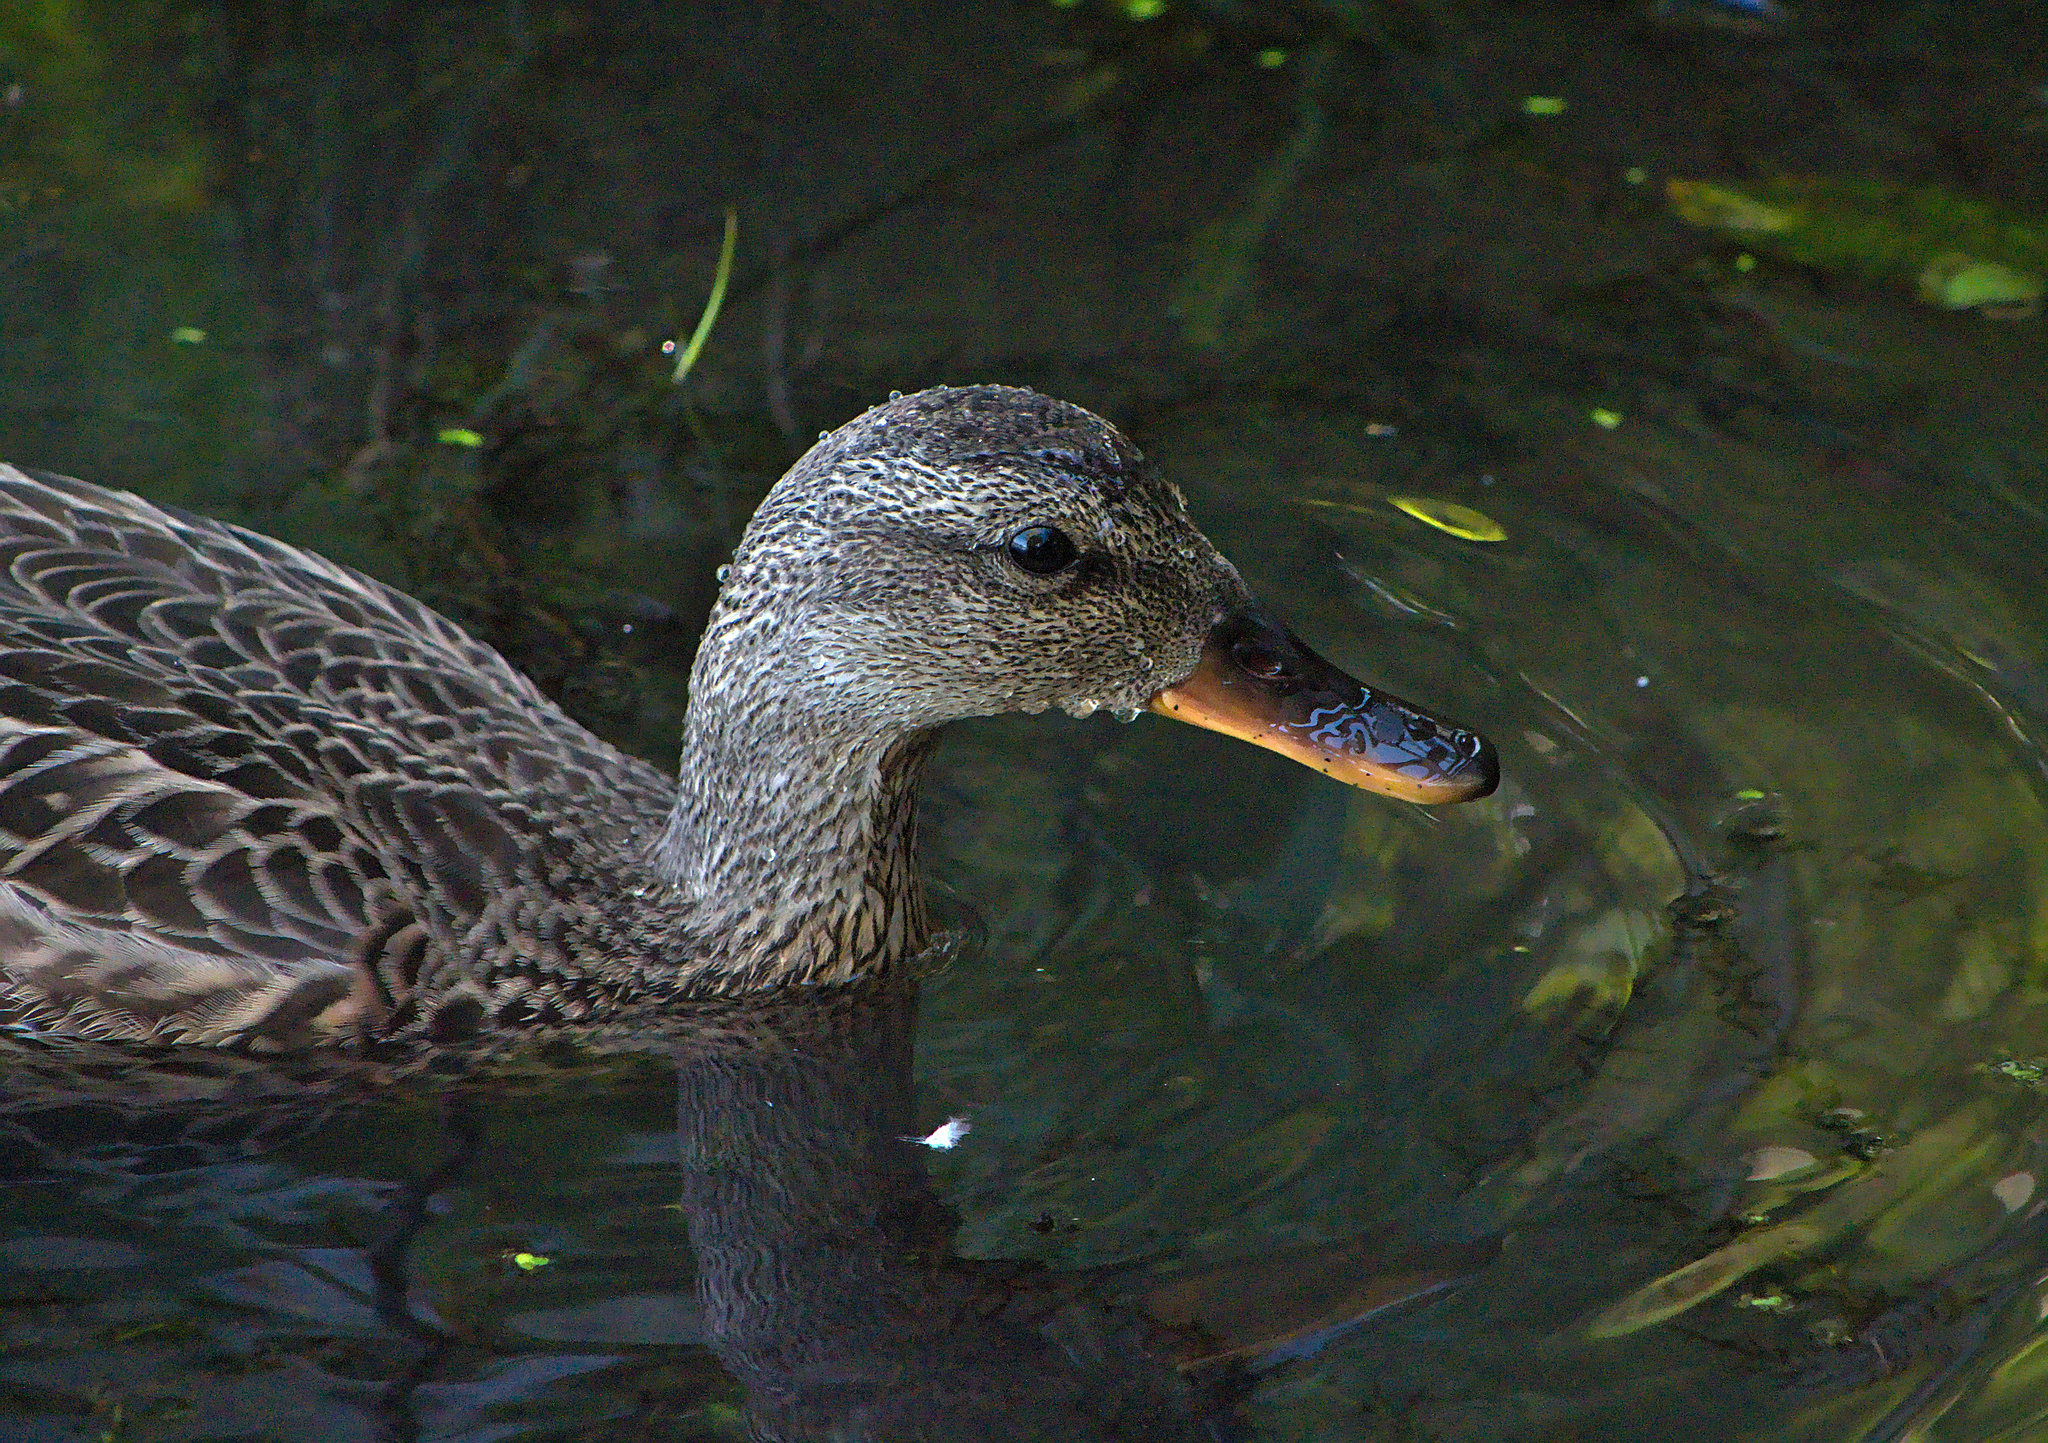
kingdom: Animalia
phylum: Chordata
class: Aves
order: Anseriformes
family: Anatidae
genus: Mareca
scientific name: Mareca strepera
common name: Gadwall
